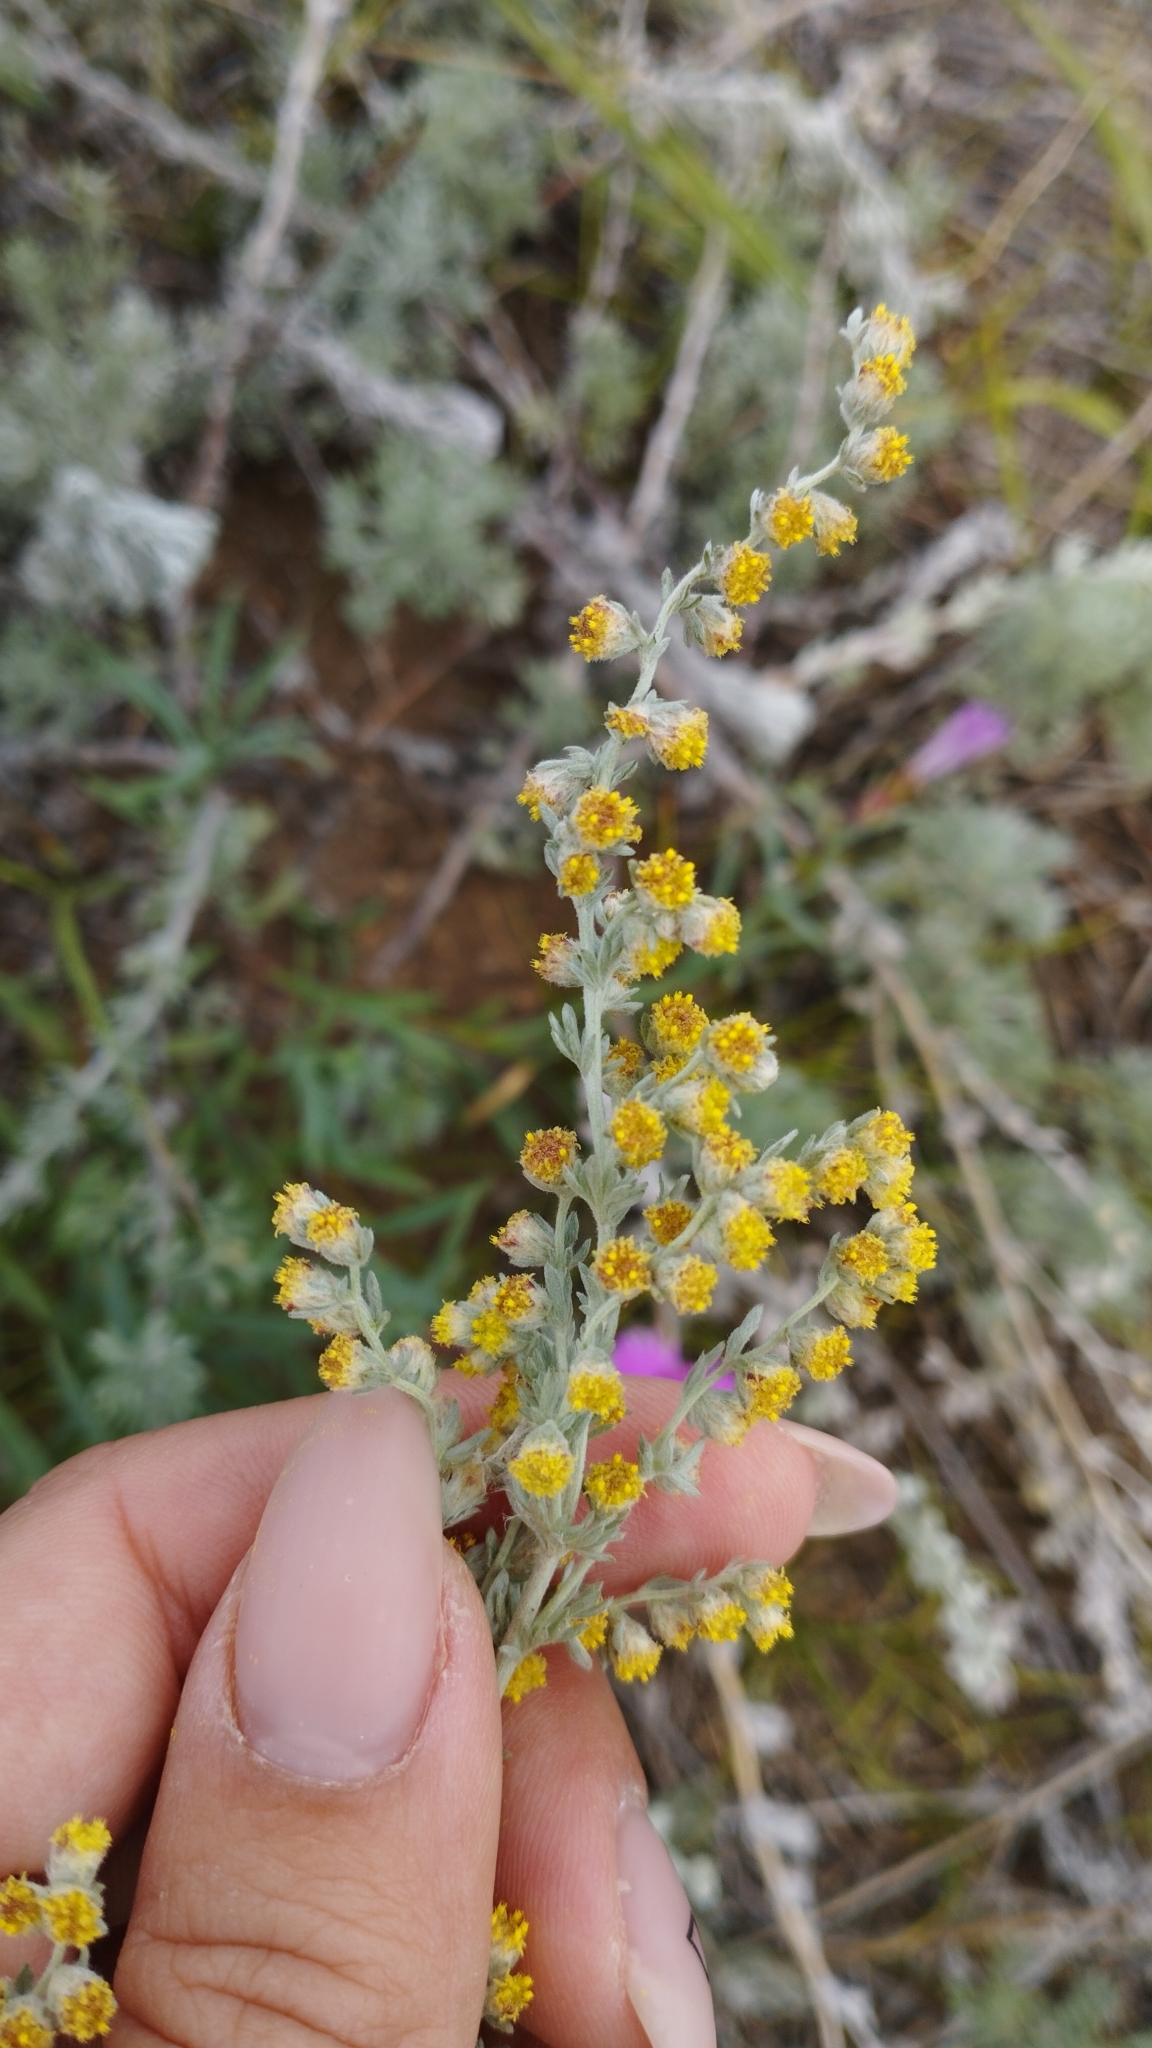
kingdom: Plantae
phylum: Tracheophyta
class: Magnoliopsida
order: Asterales
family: Asteraceae
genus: Artemisia
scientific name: Artemisia frigida
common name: Prairie sagewort
